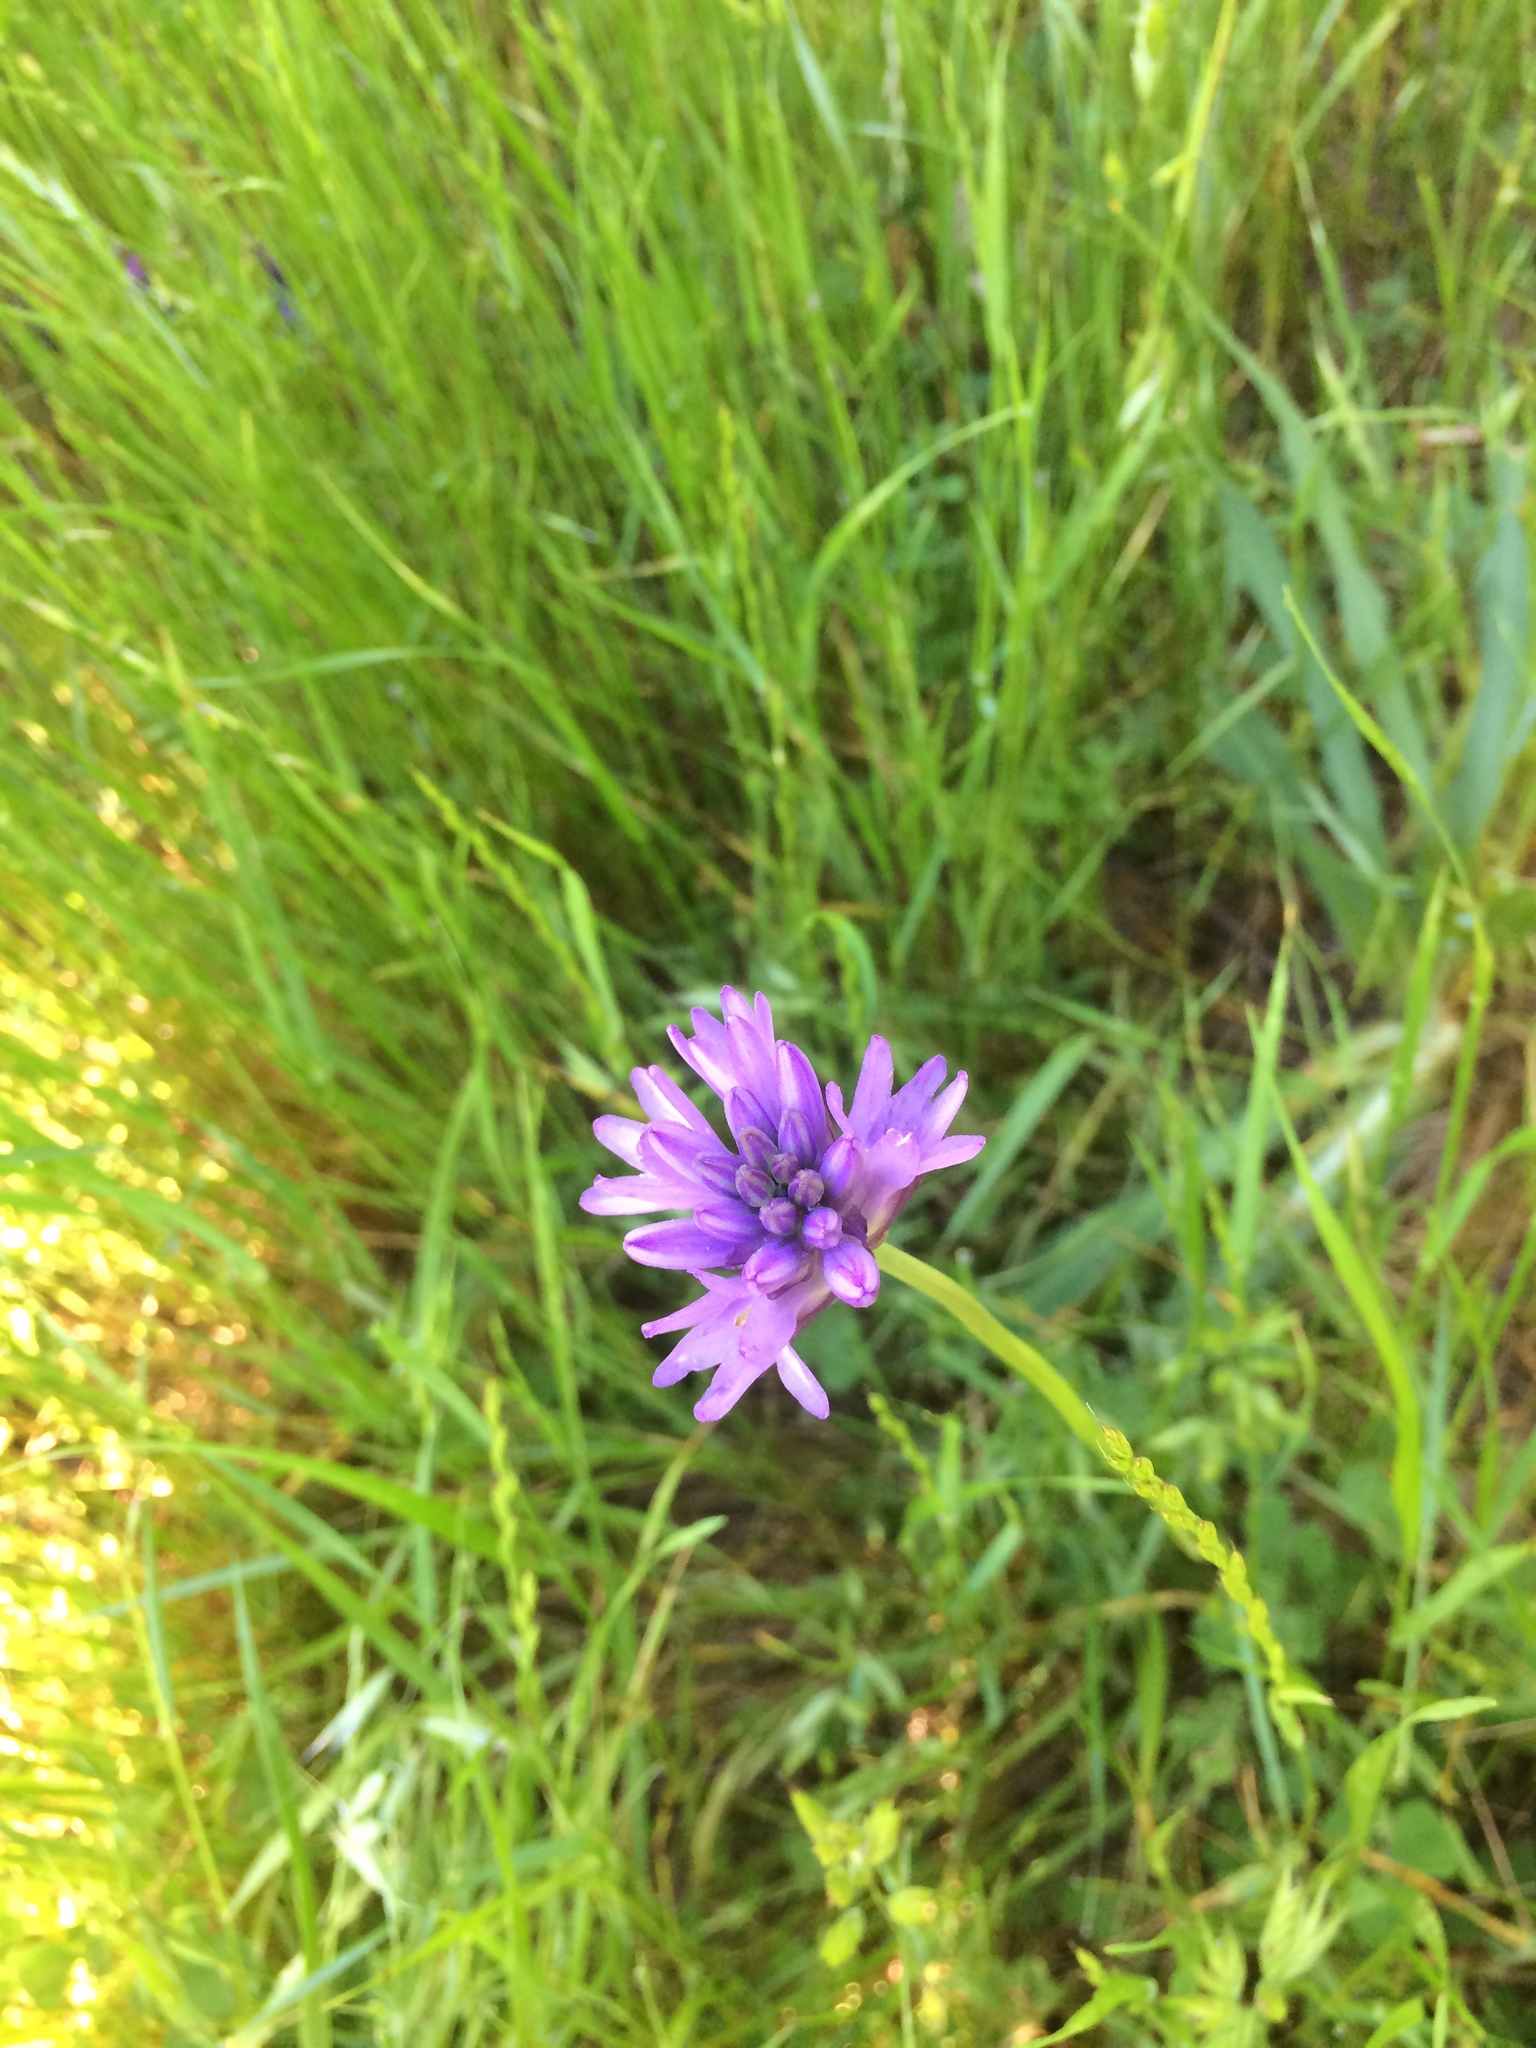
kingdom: Plantae
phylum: Tracheophyta
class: Liliopsida
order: Asparagales
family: Asparagaceae
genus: Dichelostemma
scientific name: Dichelostemma congestum
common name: Fork-tooth ookow
